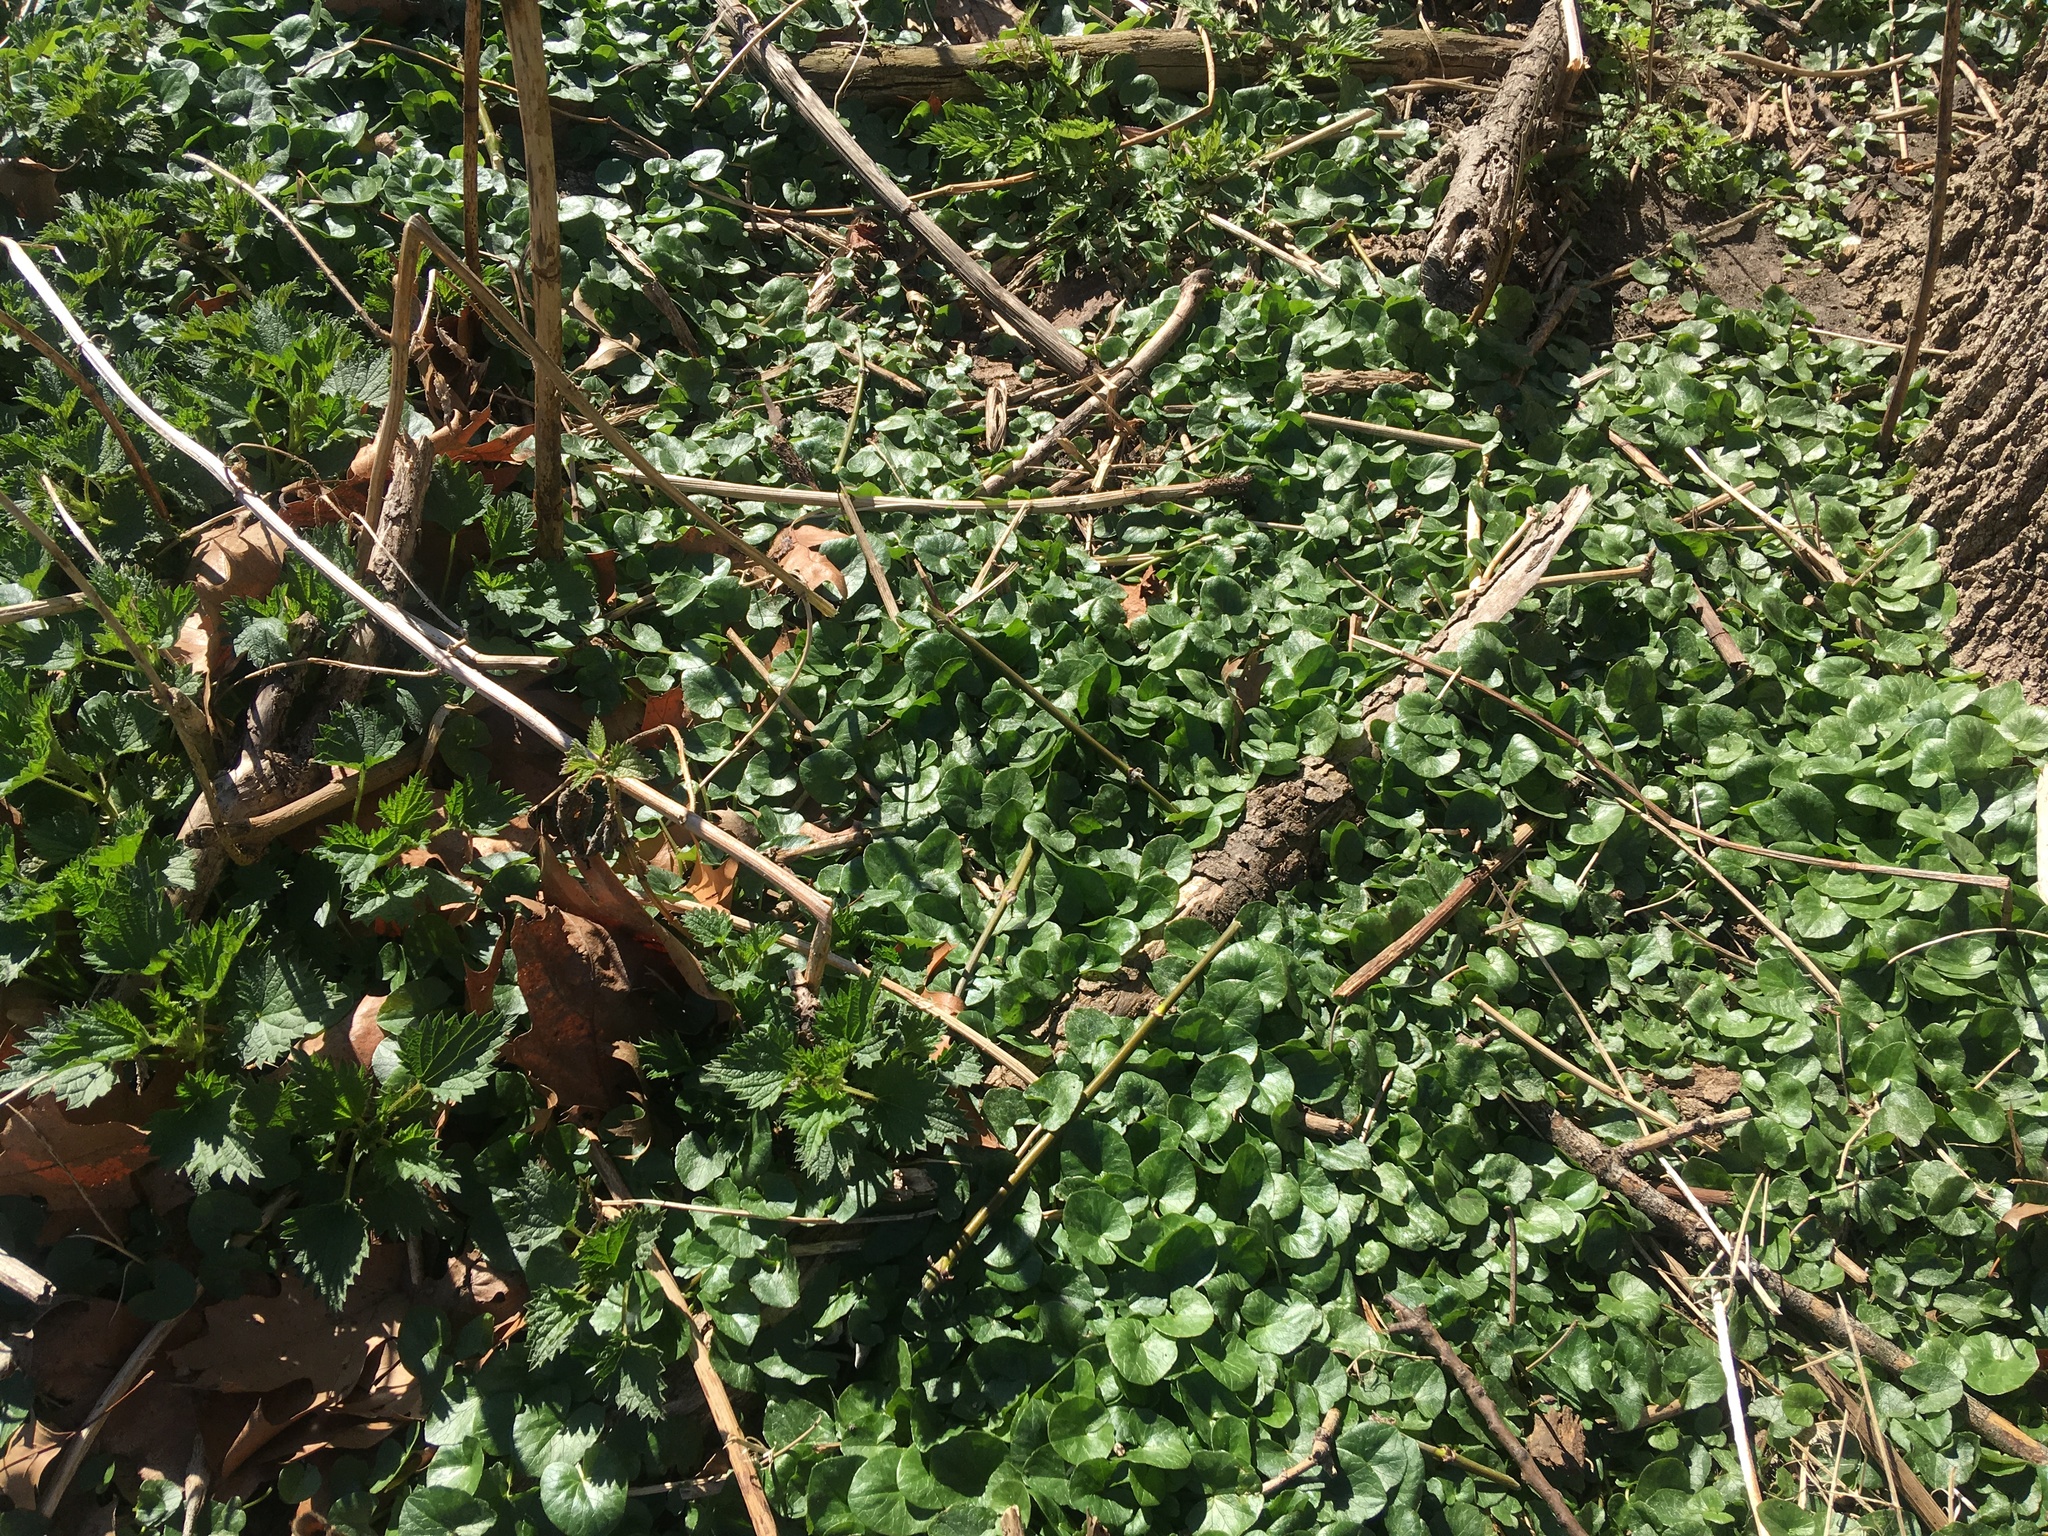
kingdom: Plantae
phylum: Tracheophyta
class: Magnoliopsida
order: Ranunculales
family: Ranunculaceae
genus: Ficaria
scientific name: Ficaria verna
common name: Lesser celandine
